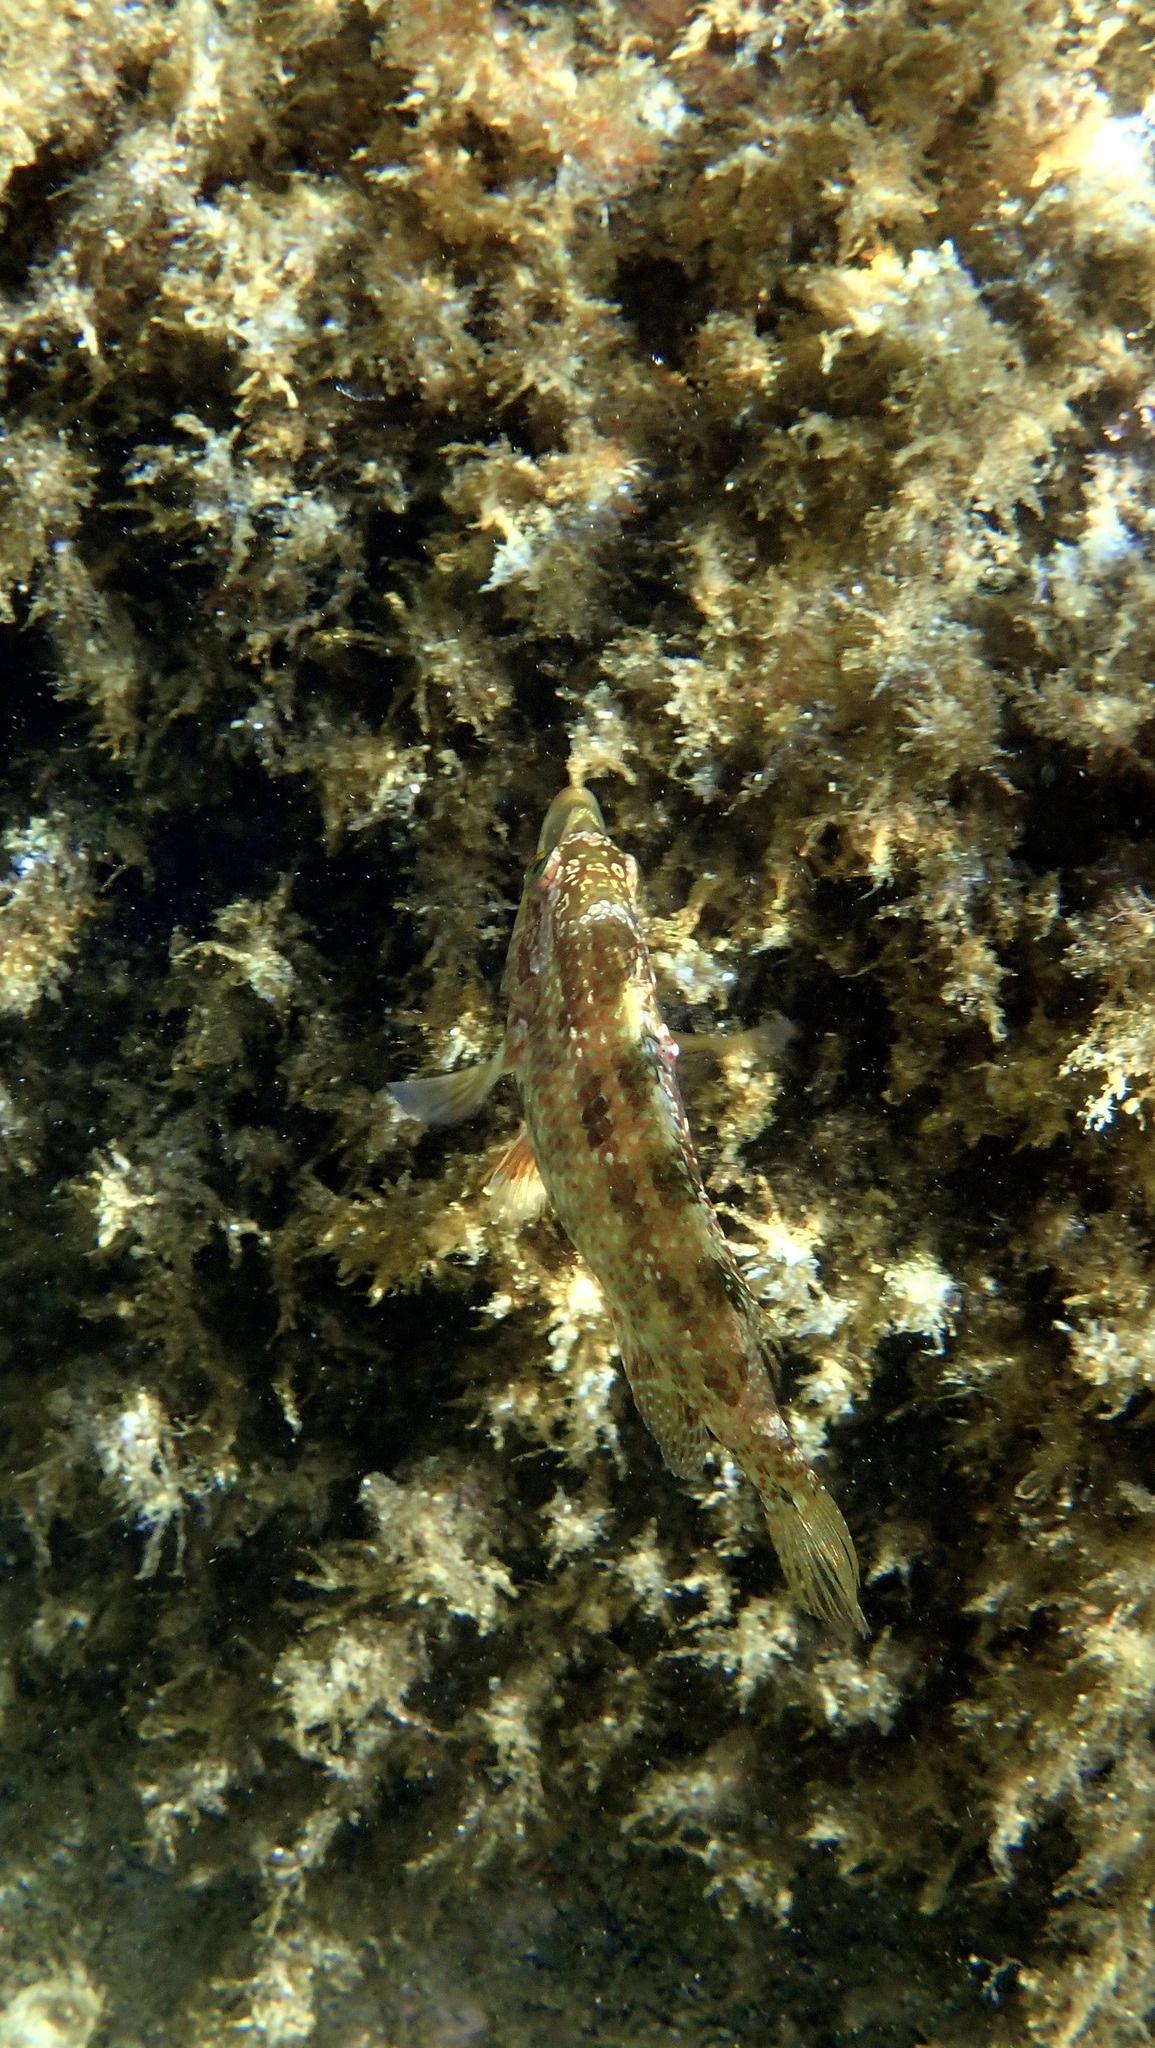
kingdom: Animalia
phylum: Chordata
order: Perciformes
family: Labridae
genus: Symphodus
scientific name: Symphodus roissali
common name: Five-spotted wrasse
